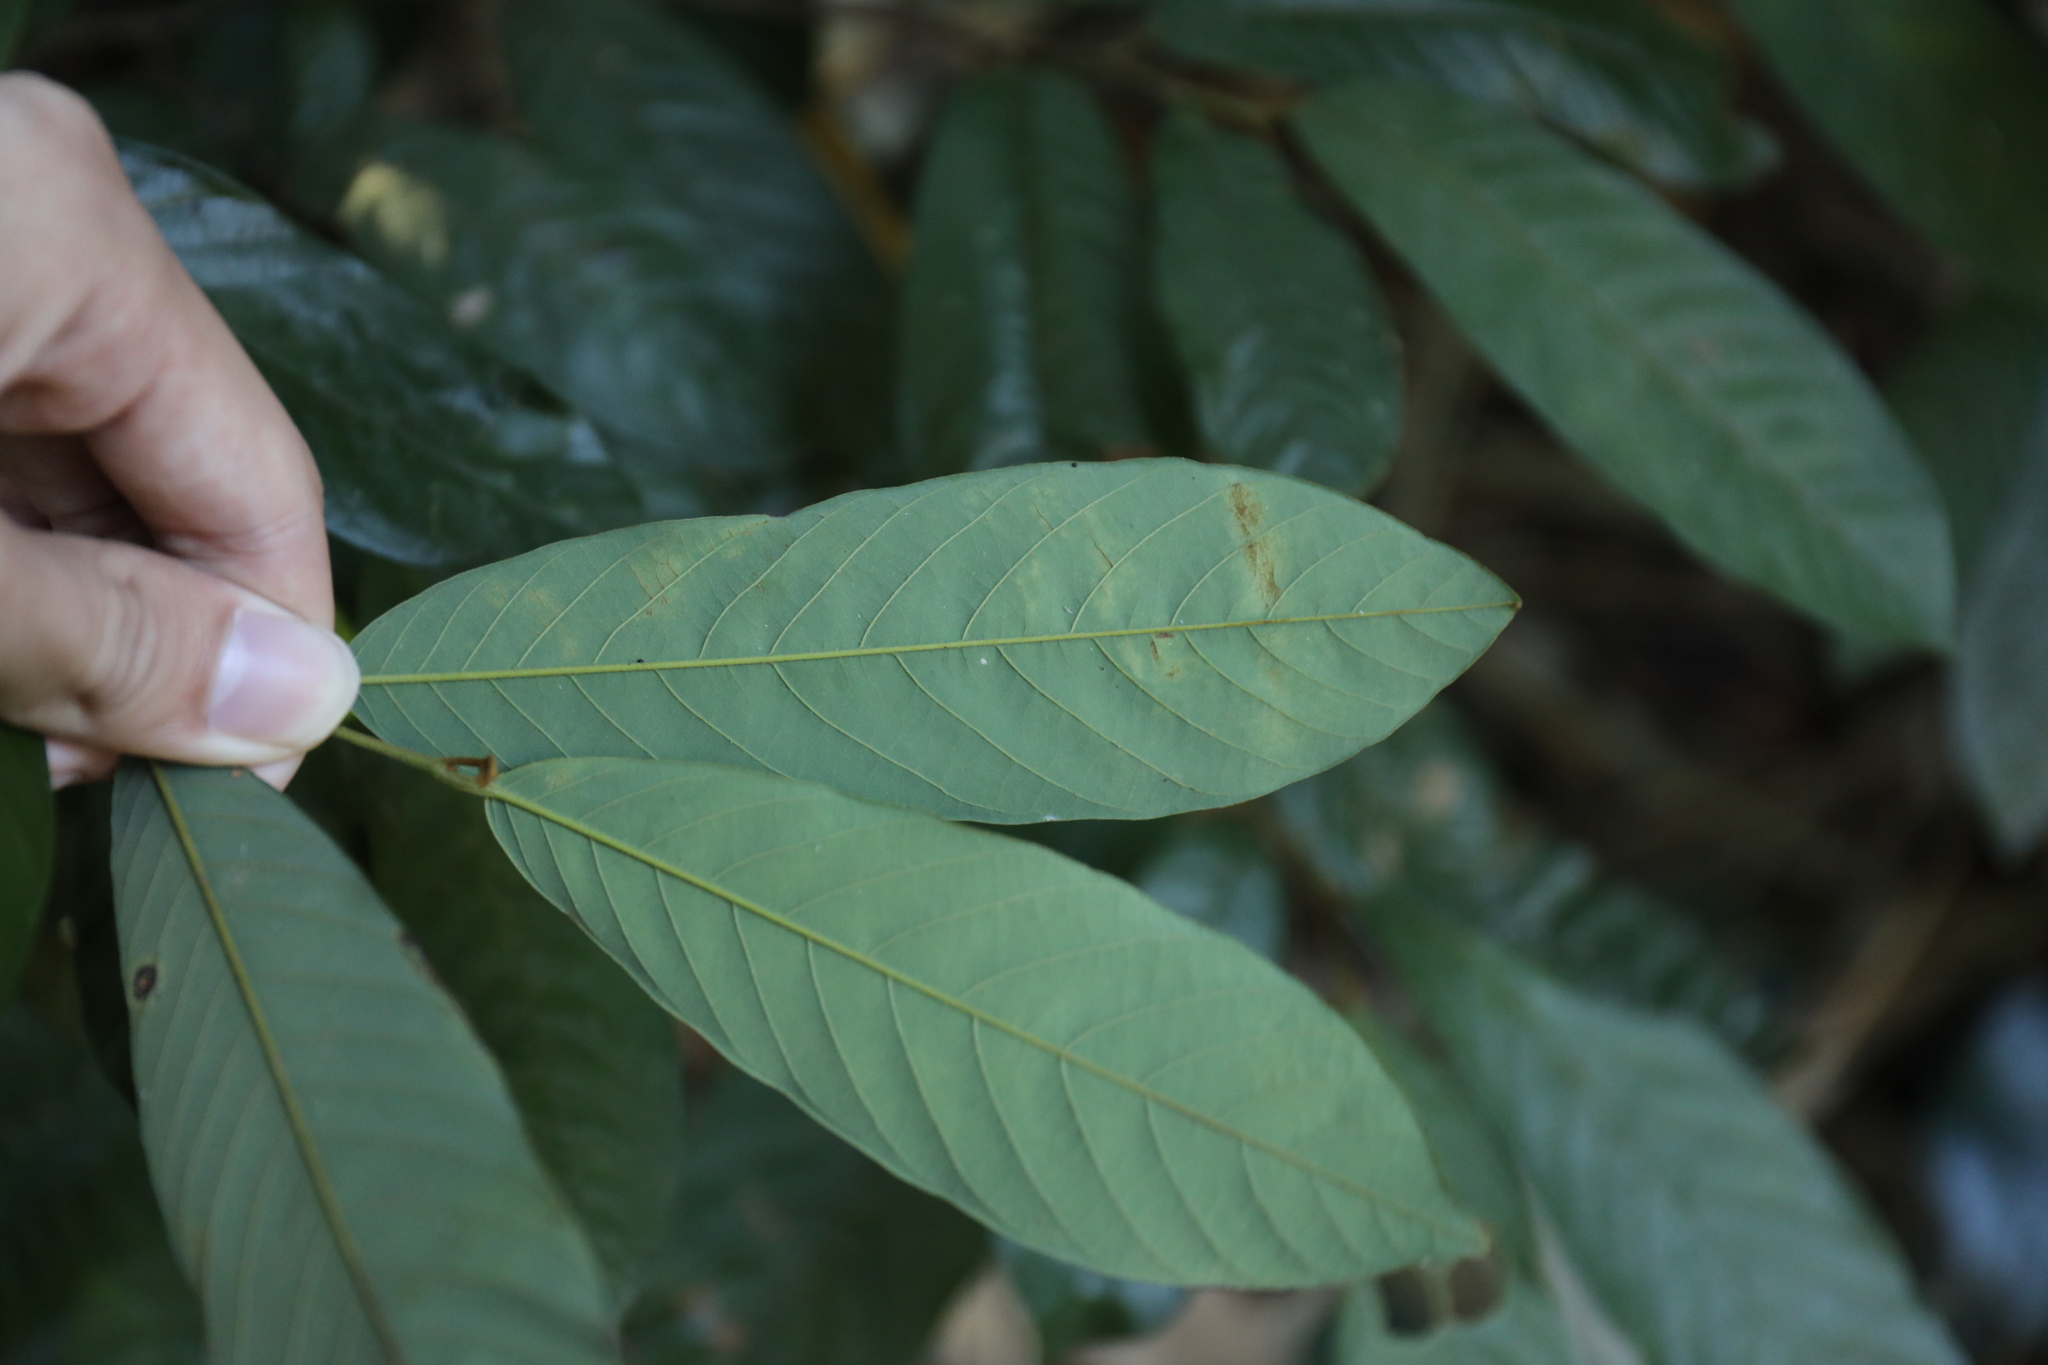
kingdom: Plantae
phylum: Tracheophyta
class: Magnoliopsida
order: Magnoliales
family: Annonaceae
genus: Fissistigma
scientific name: Fissistigma oldhamii
